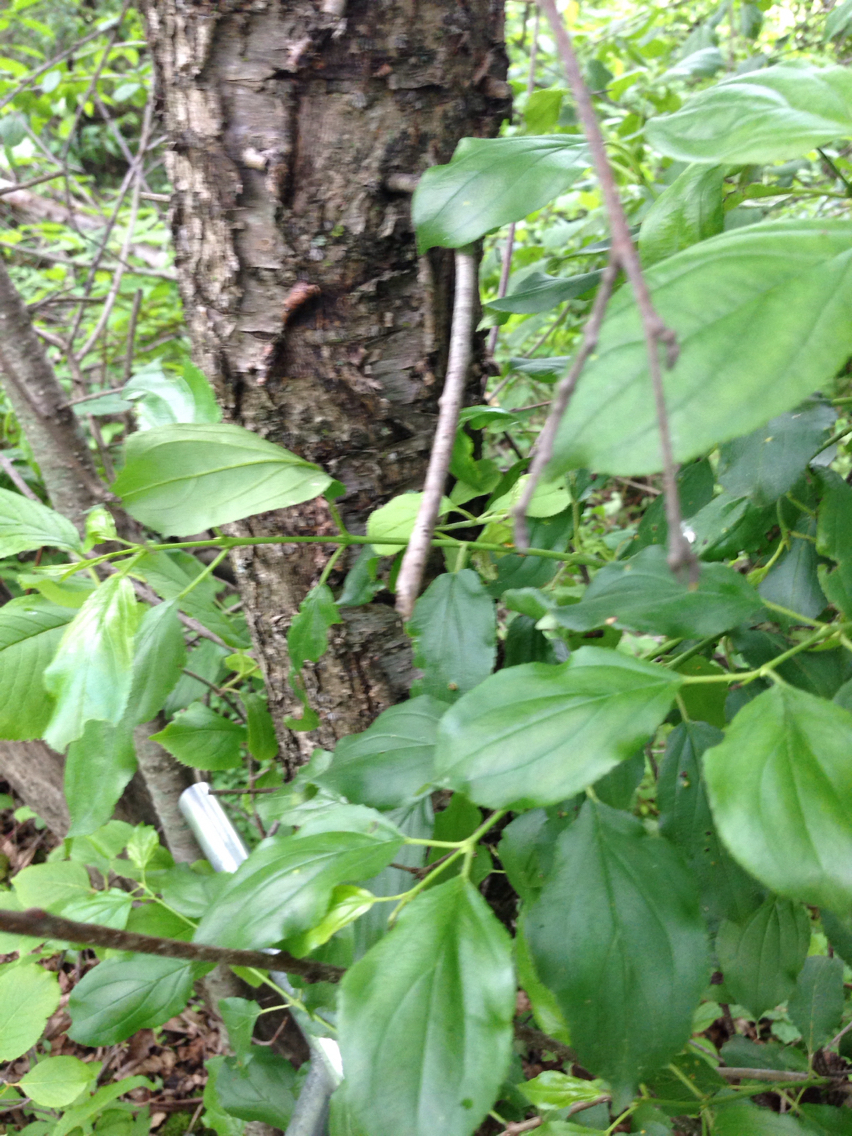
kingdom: Plantae
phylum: Tracheophyta
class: Magnoliopsida
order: Rosales
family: Rhamnaceae
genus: Rhamnus
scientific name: Rhamnus cathartica
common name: Common buckthorn
